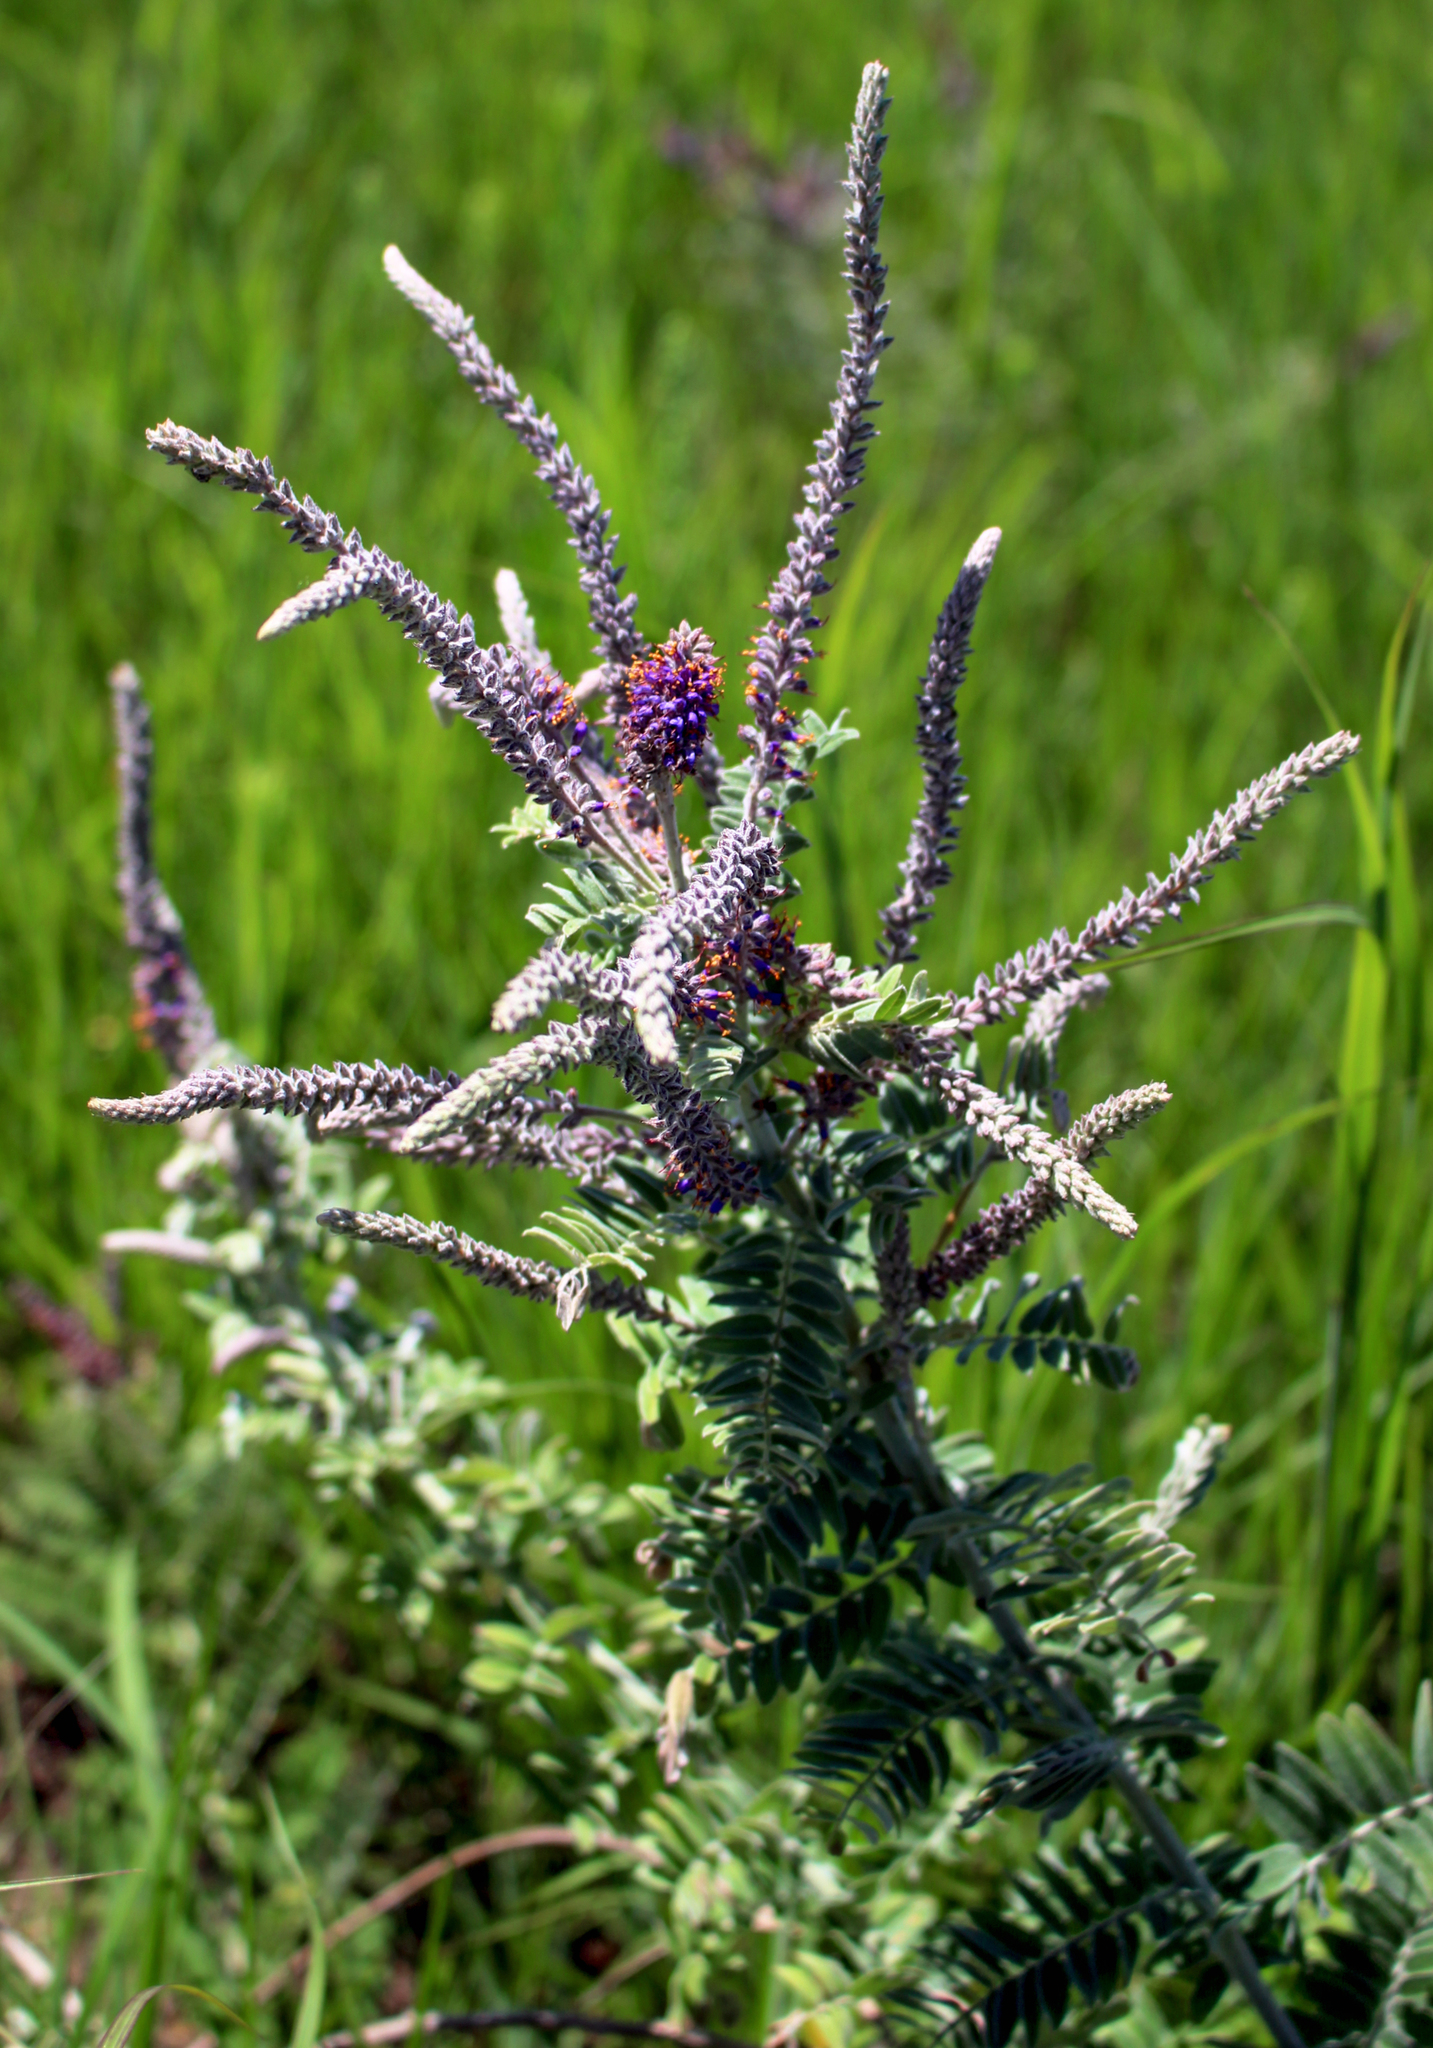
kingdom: Plantae
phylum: Tracheophyta
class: Magnoliopsida
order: Fabales
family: Fabaceae
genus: Amorpha
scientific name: Amorpha canescens
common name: Leadplant
